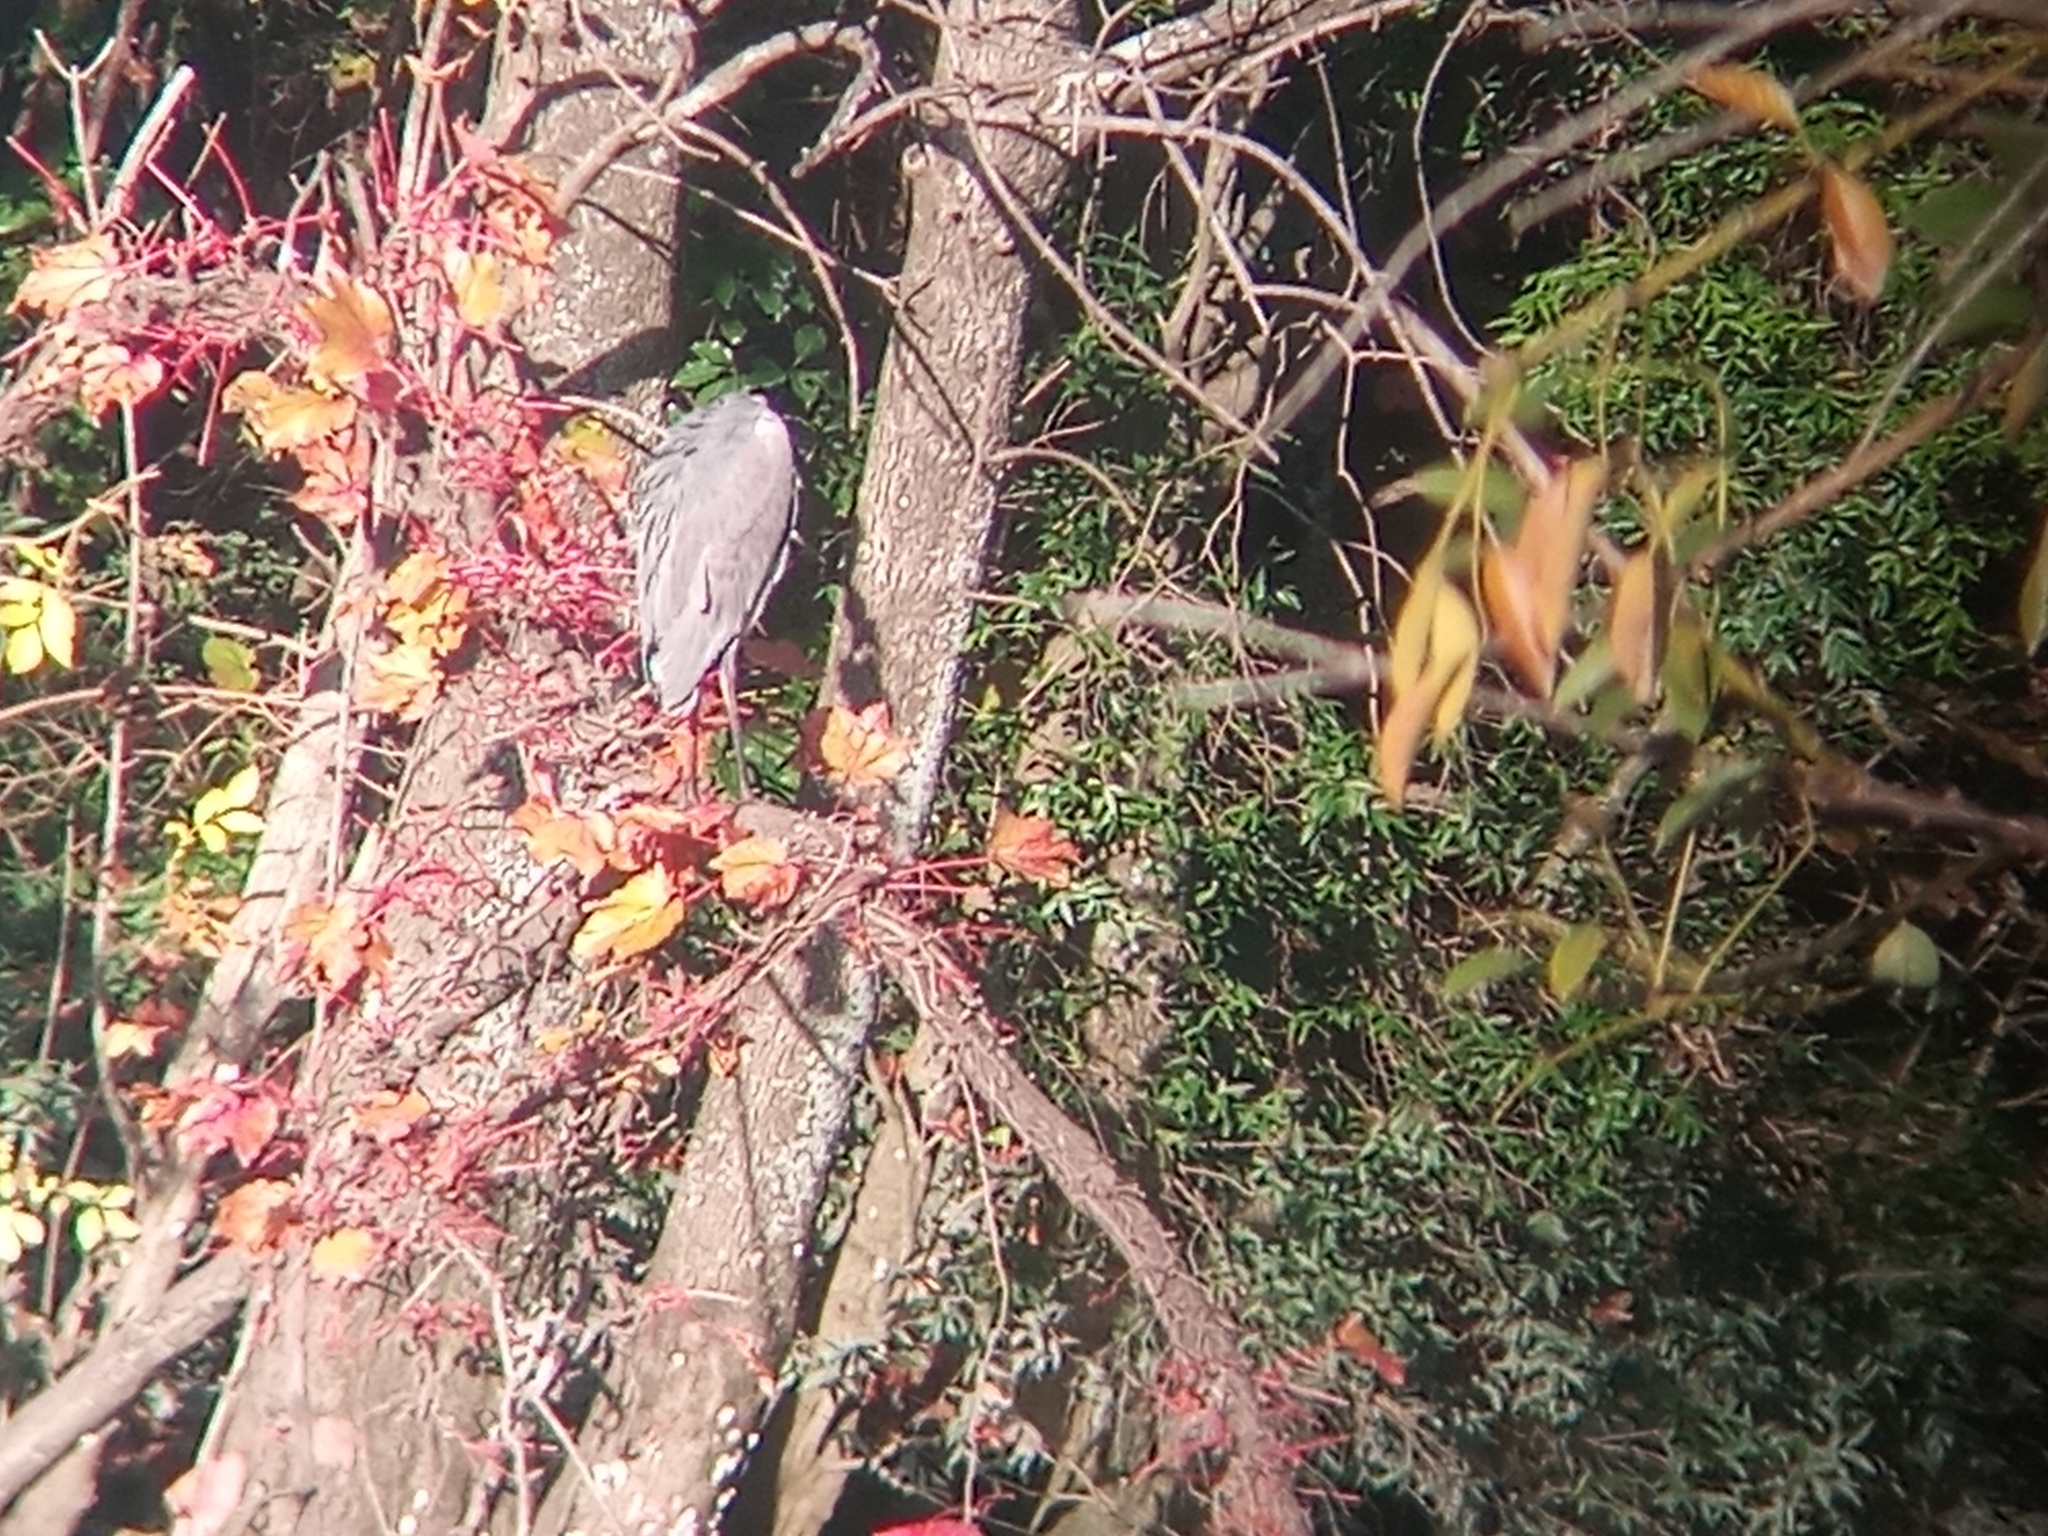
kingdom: Animalia
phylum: Chordata
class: Aves
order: Pelecaniformes
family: Ardeidae
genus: Ardea
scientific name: Ardea cocoi
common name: Cocoi heron
